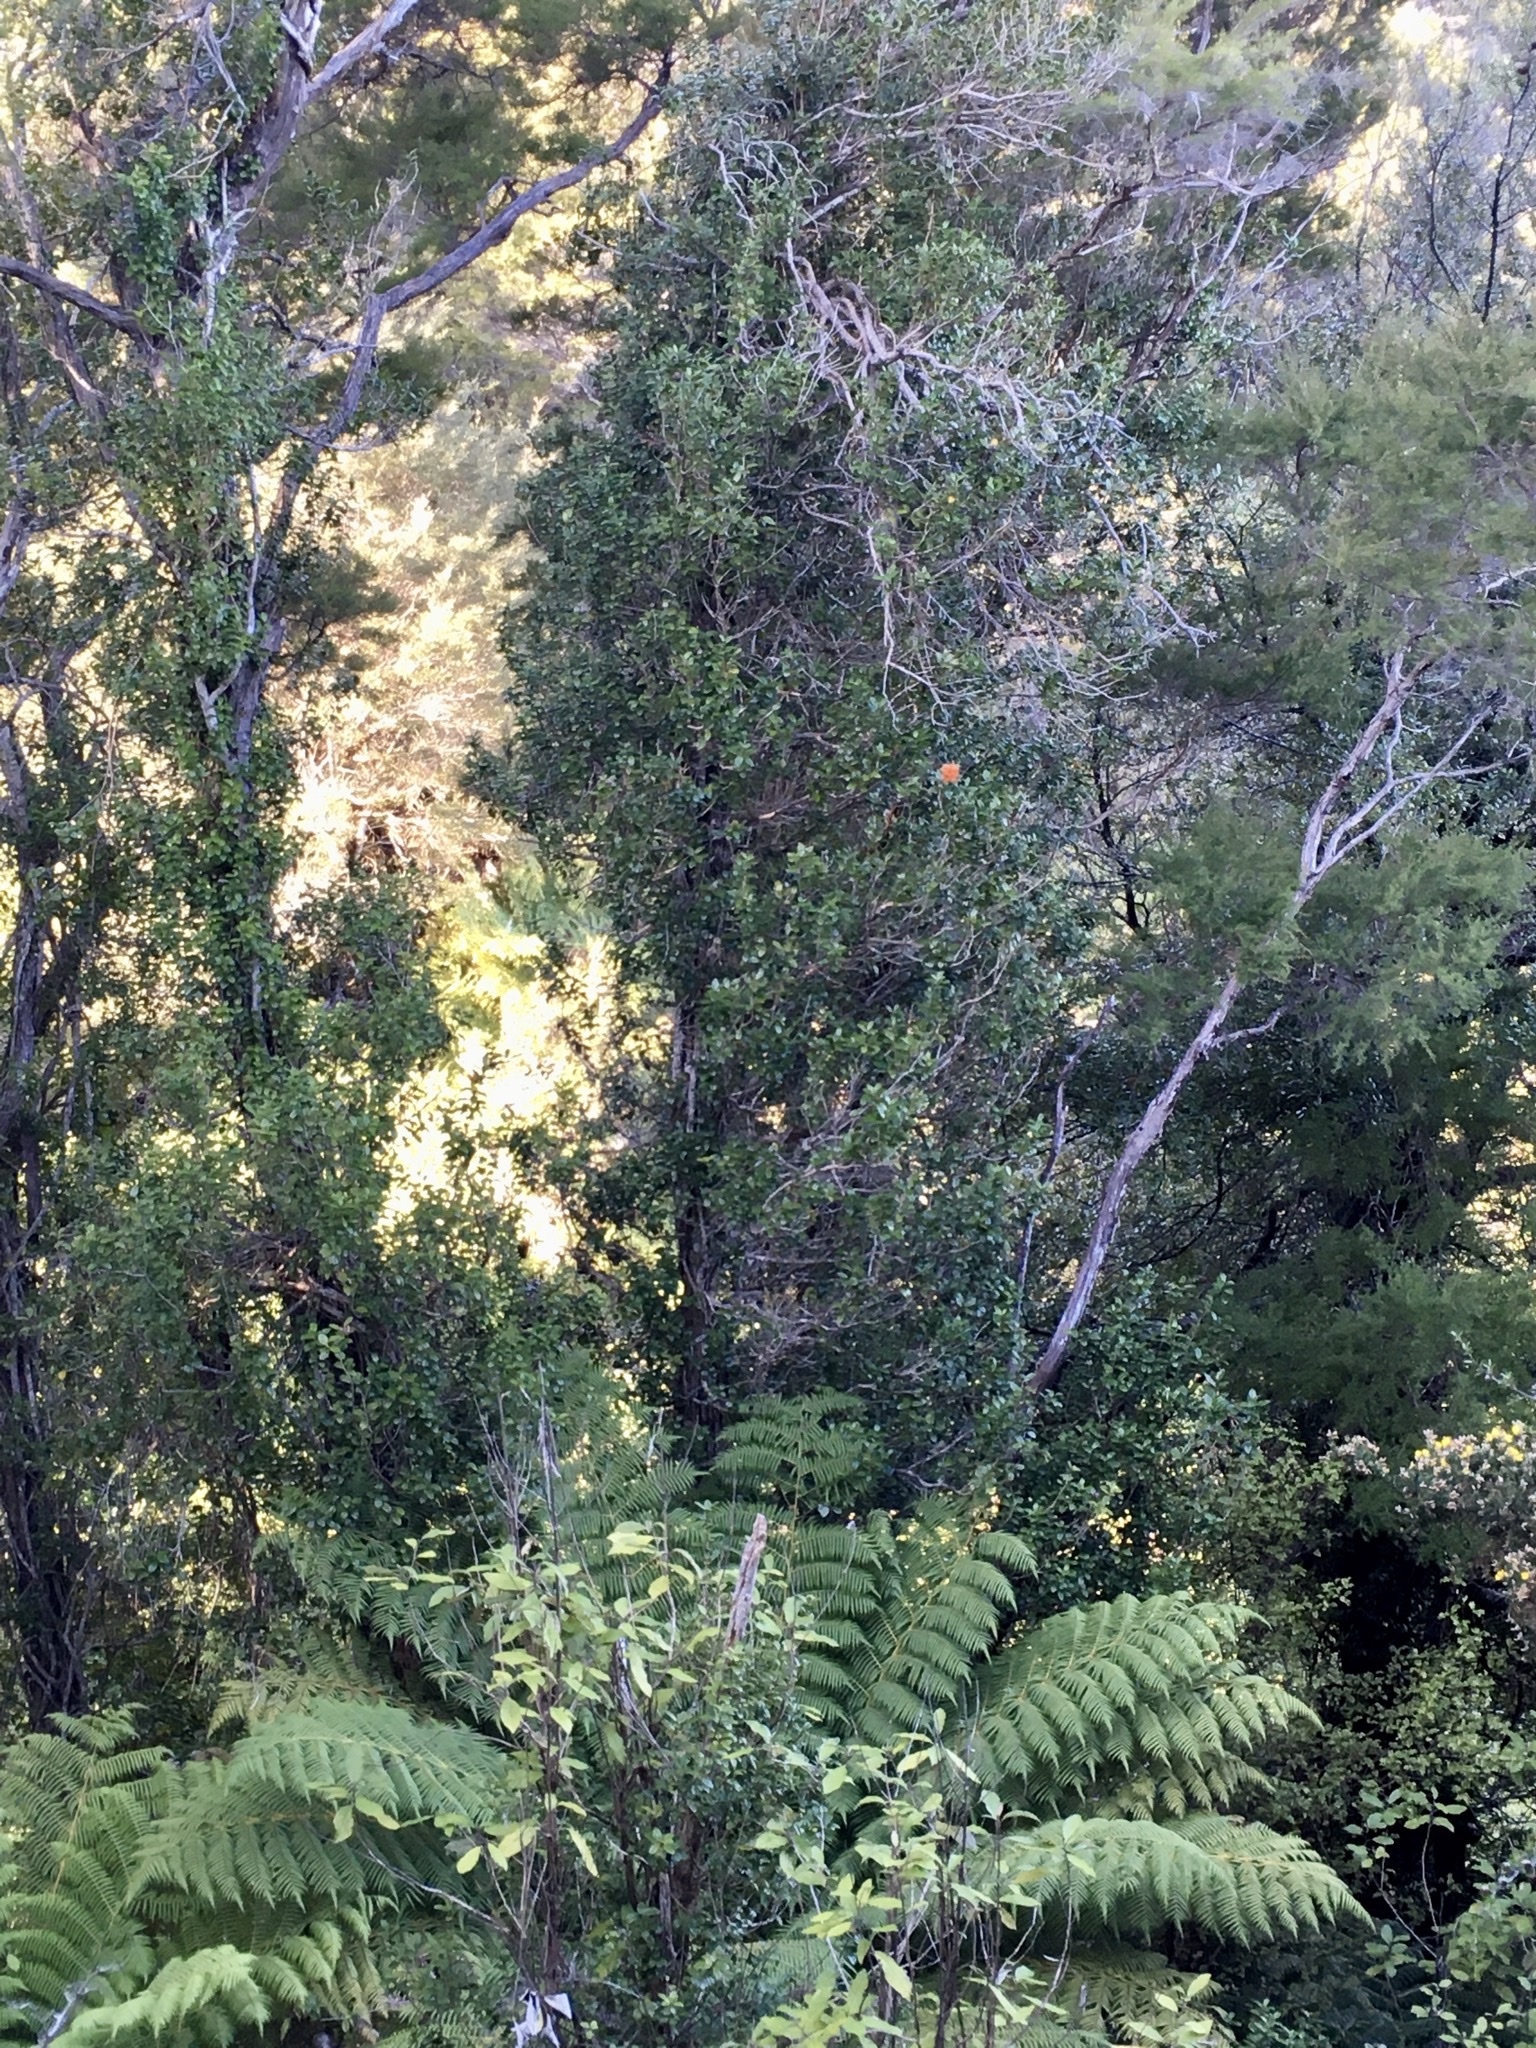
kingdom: Plantae
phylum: Tracheophyta
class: Magnoliopsida
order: Myrtales
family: Myrtaceae
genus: Metrosideros
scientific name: Metrosideros fulgens
